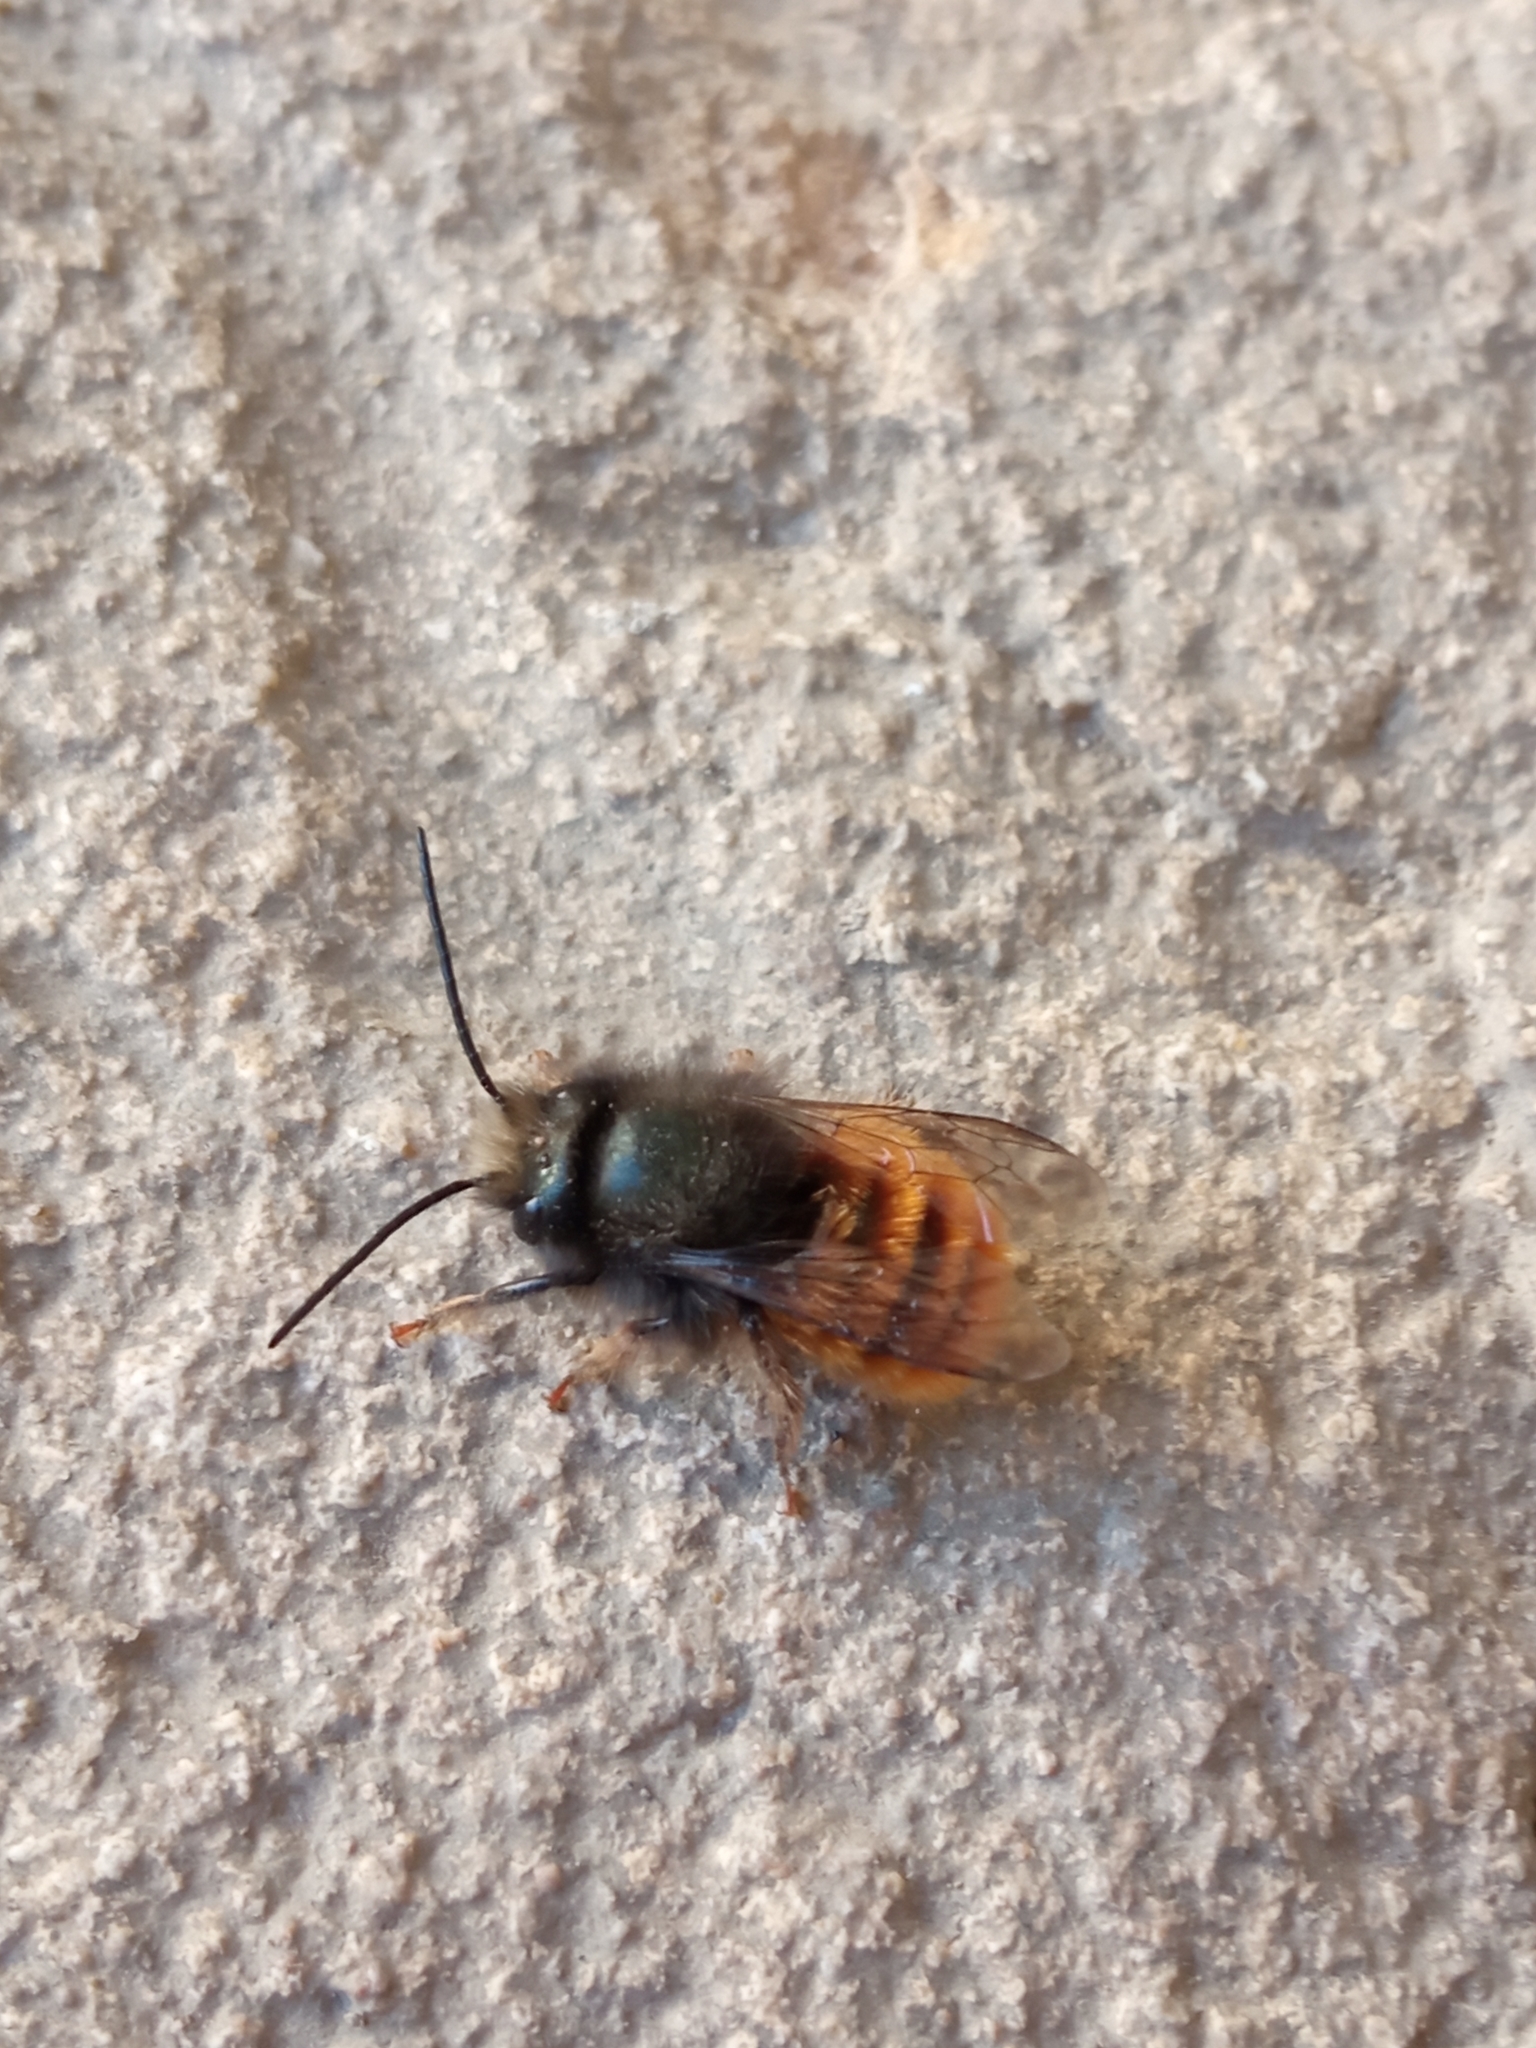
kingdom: Animalia
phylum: Arthropoda
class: Insecta
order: Hymenoptera
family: Megachilidae
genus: Osmia
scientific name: Osmia cornuta
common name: Mason bee
